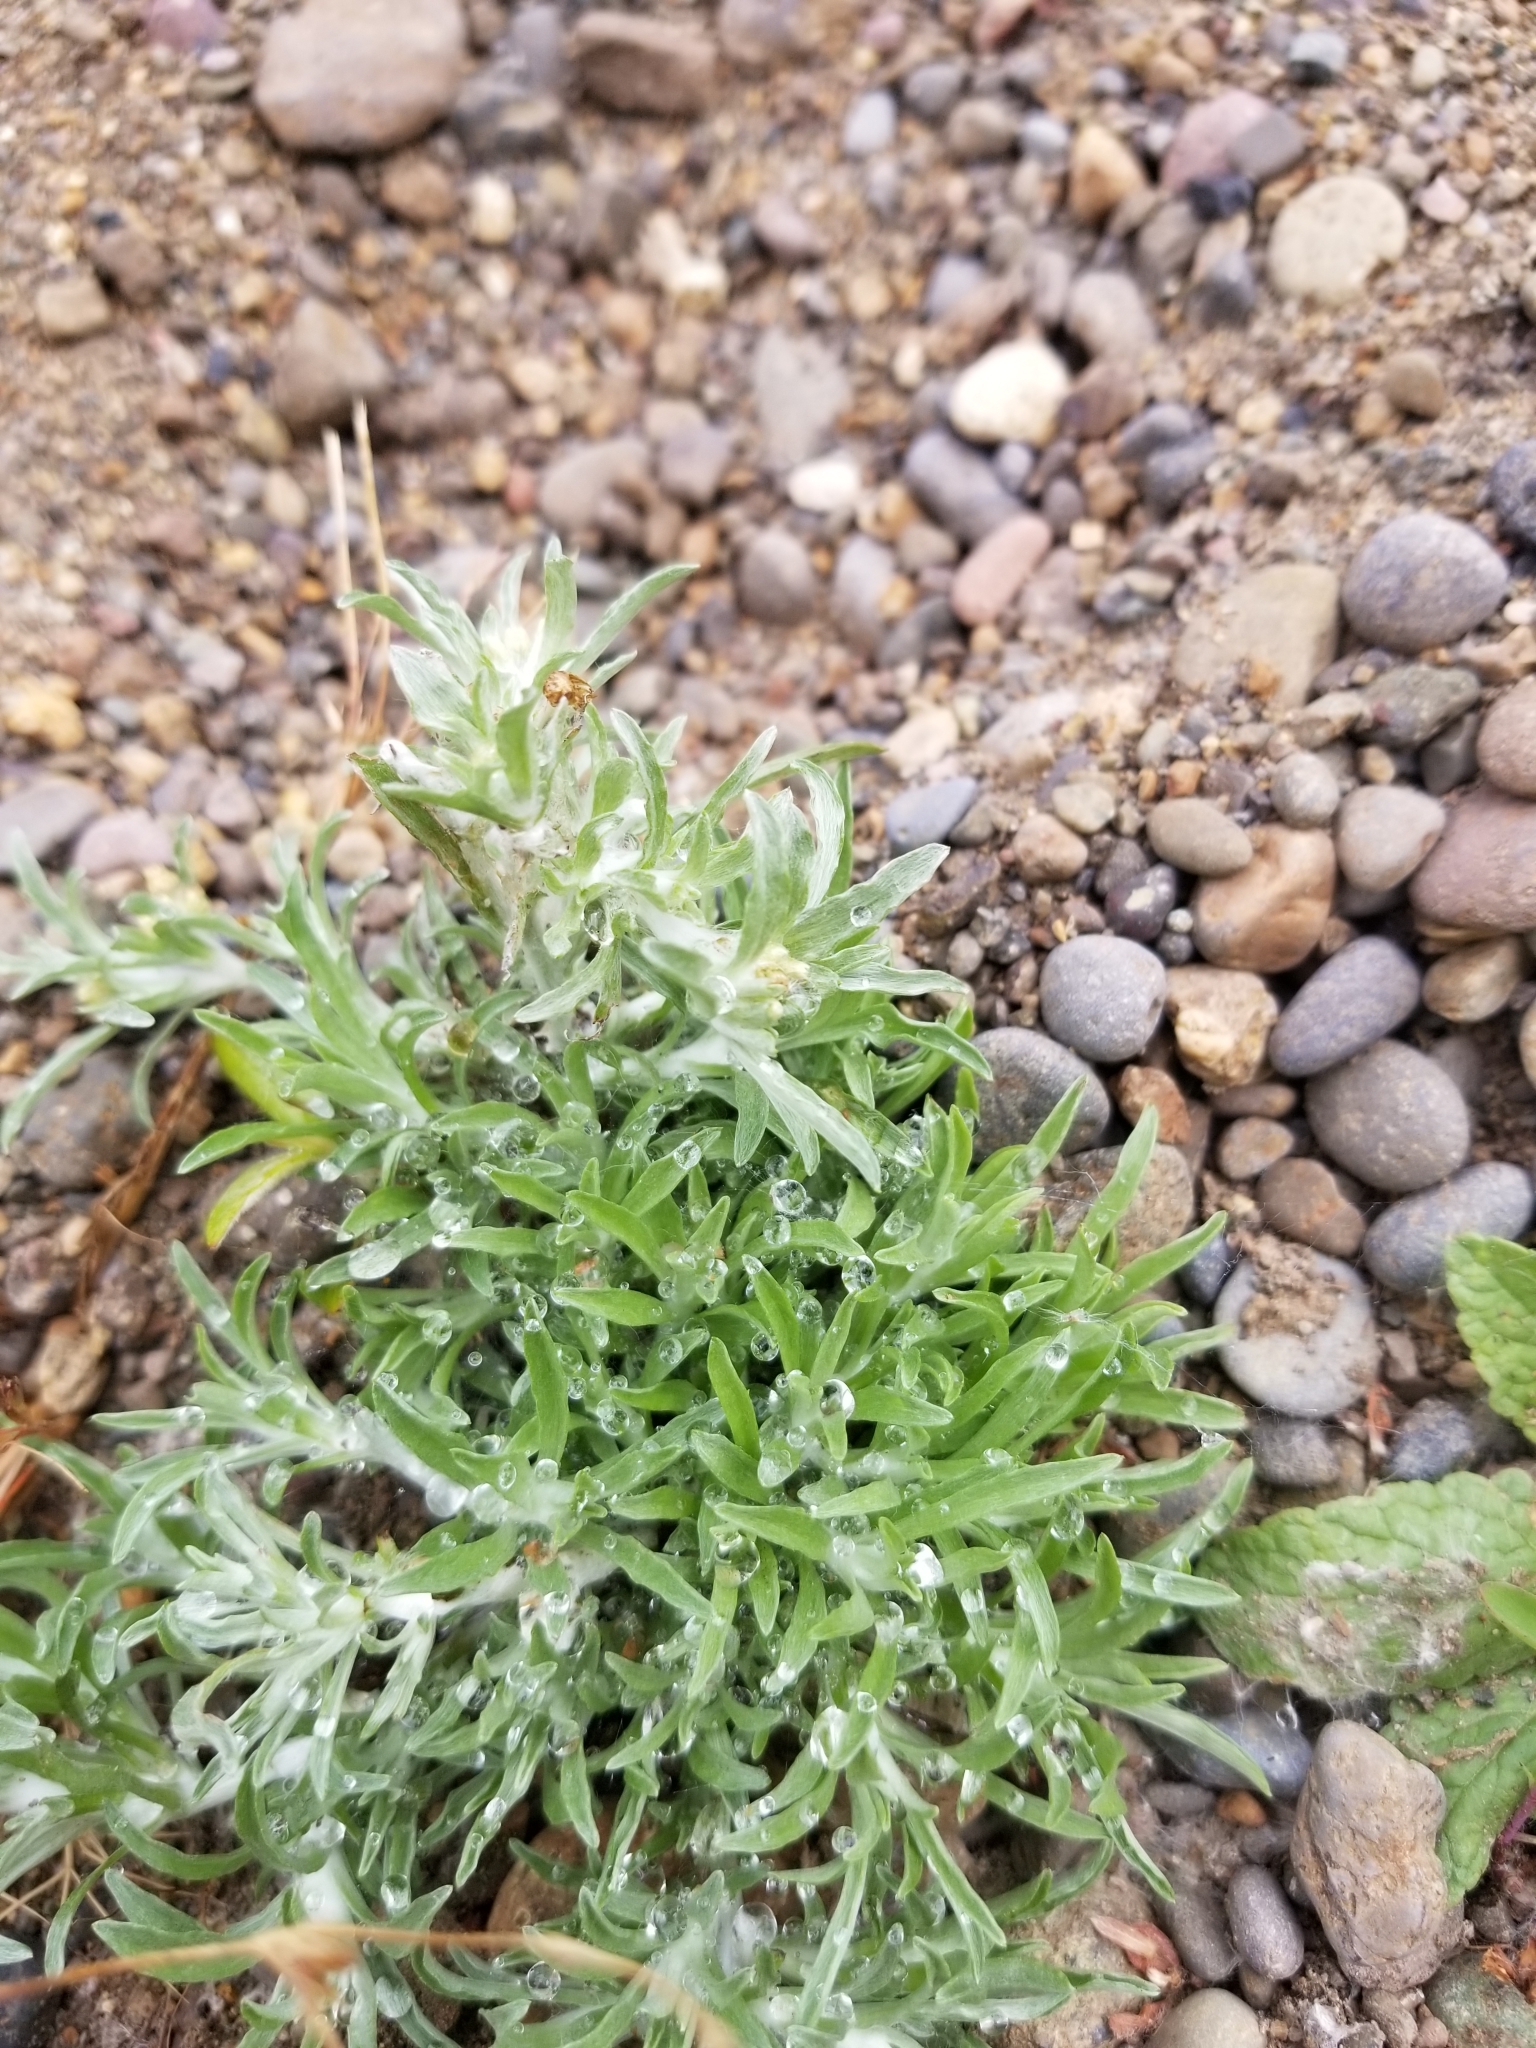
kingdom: Plantae
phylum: Tracheophyta
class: Magnoliopsida
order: Asterales
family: Asteraceae
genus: Gnaphalium
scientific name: Gnaphalium uliginosum
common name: Marsh cudweed
